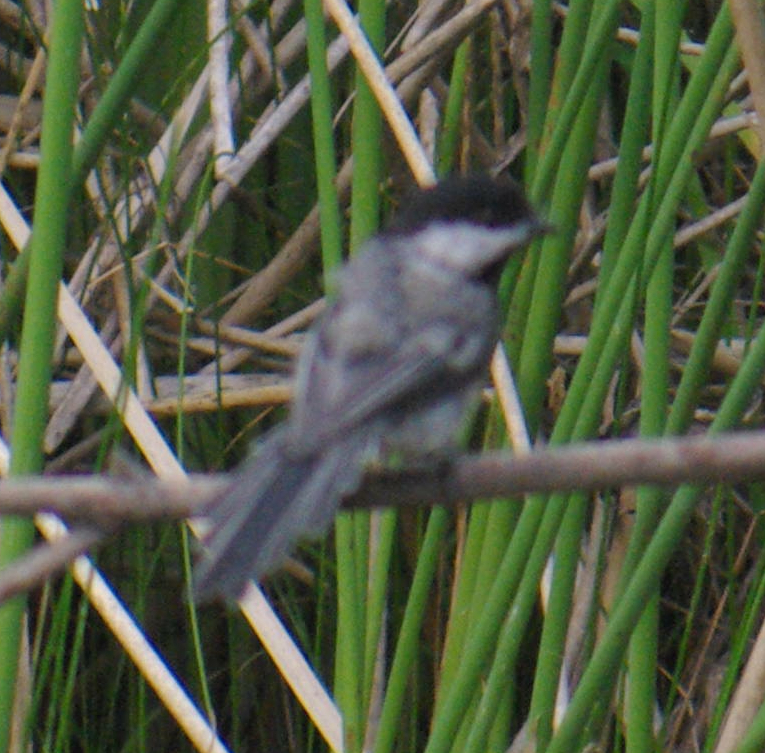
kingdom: Animalia
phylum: Chordata
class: Aves
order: Passeriformes
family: Paridae
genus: Poecile
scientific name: Poecile atricapillus
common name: Black-capped chickadee
